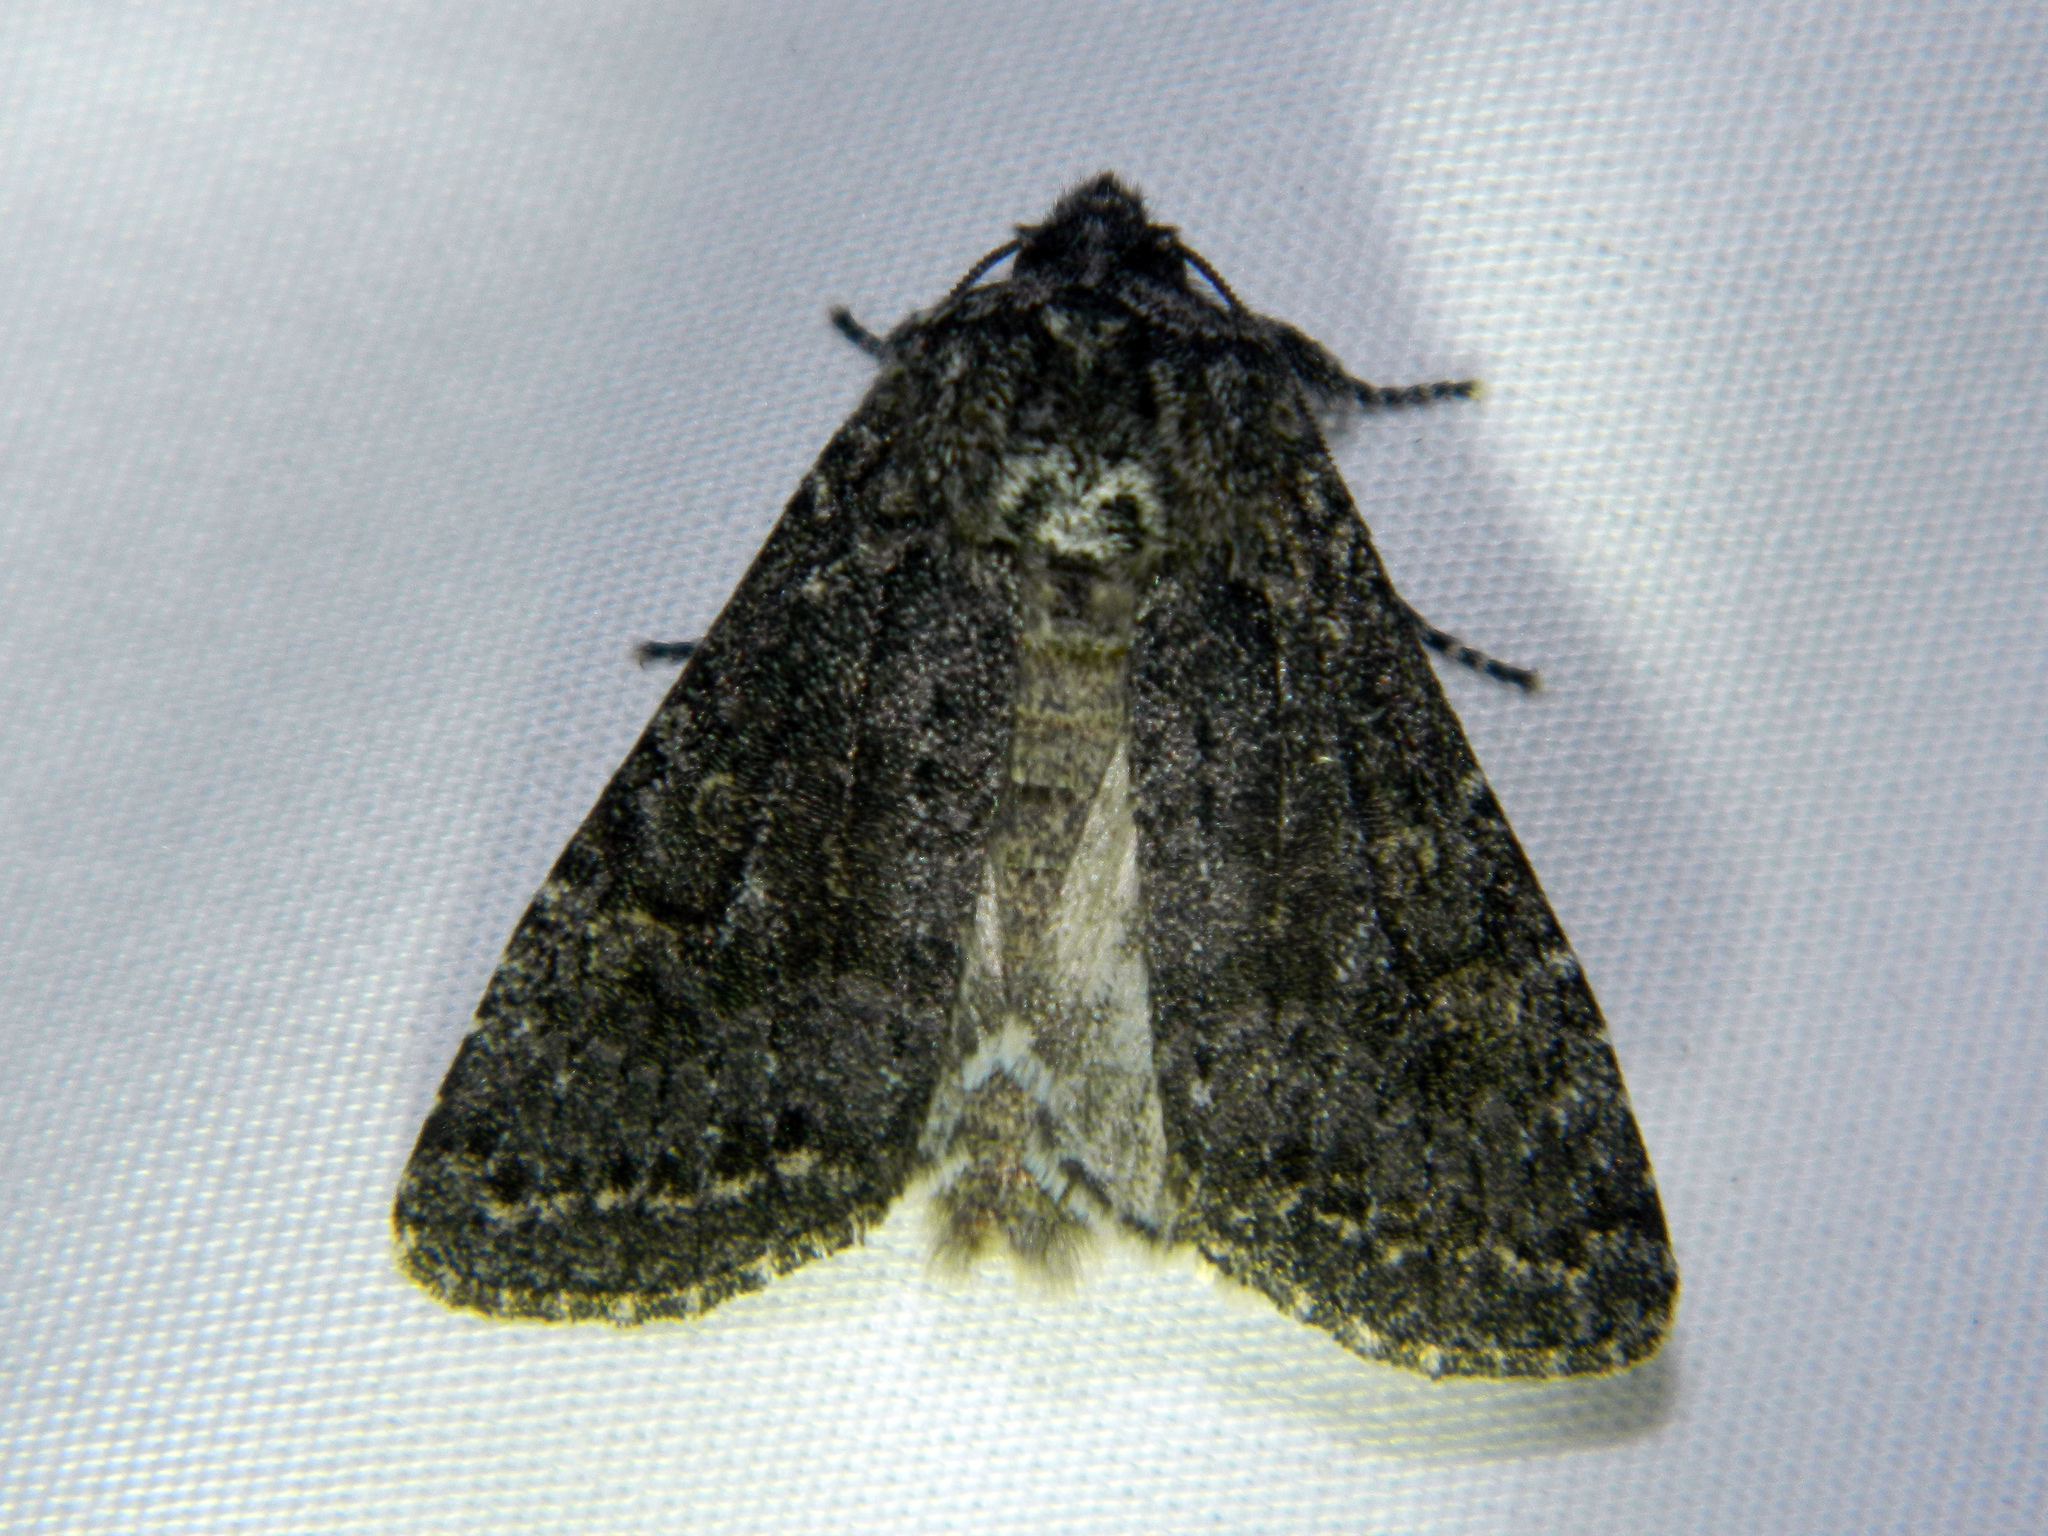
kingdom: Animalia
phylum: Arthropoda
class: Insecta
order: Lepidoptera
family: Noctuidae
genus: Egira
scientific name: Egira dolosa
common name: Lined black aspen cat.
